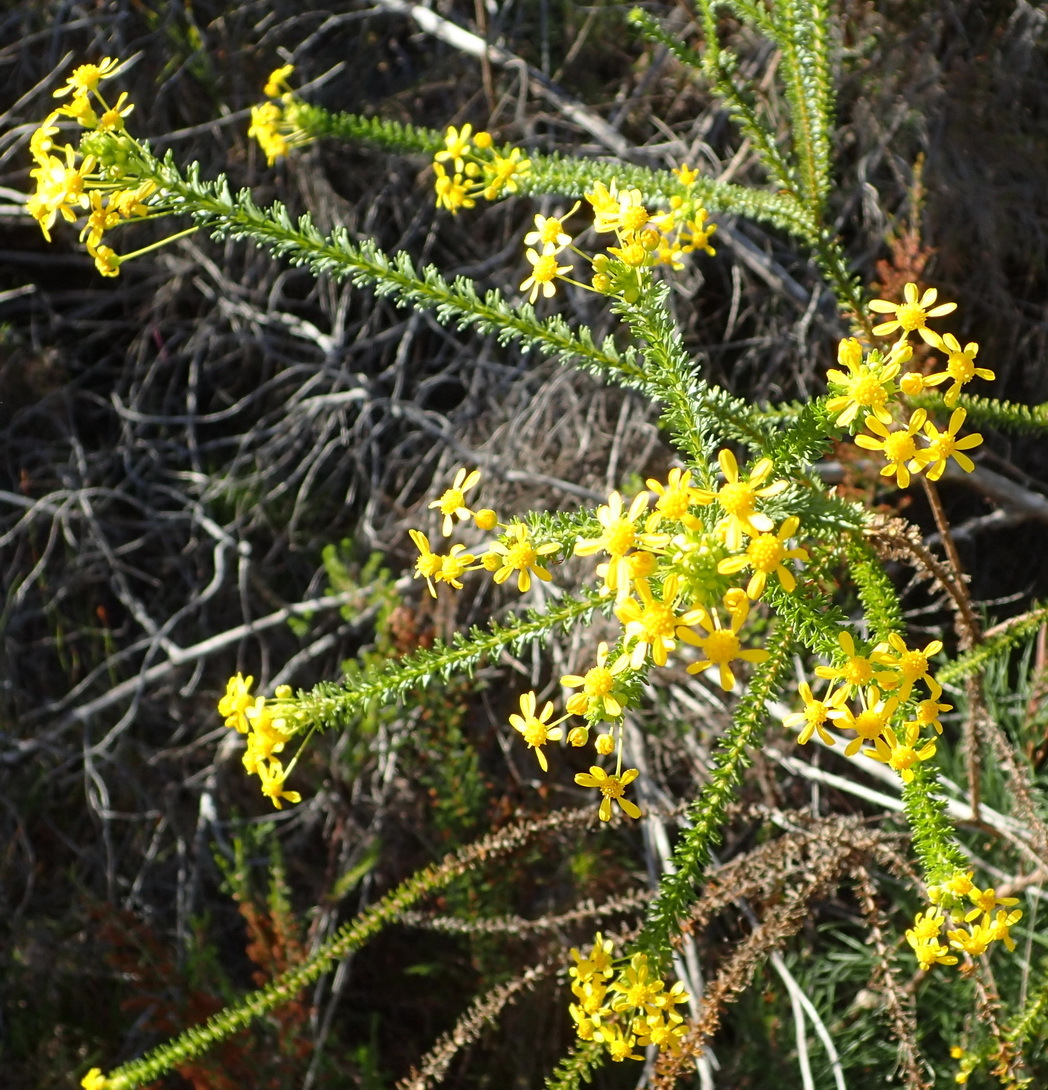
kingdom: Plantae
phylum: Tracheophyta
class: Magnoliopsida
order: Asterales
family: Asteraceae
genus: Euryops
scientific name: Euryops virgineus
